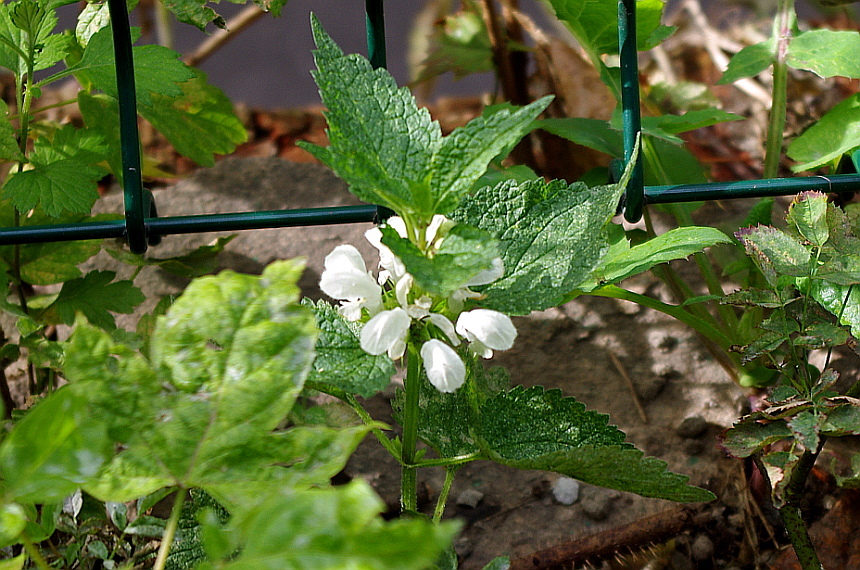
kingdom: Plantae
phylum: Tracheophyta
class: Magnoliopsida
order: Lamiales
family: Lamiaceae
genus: Lamium
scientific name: Lamium album
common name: White dead-nettle
